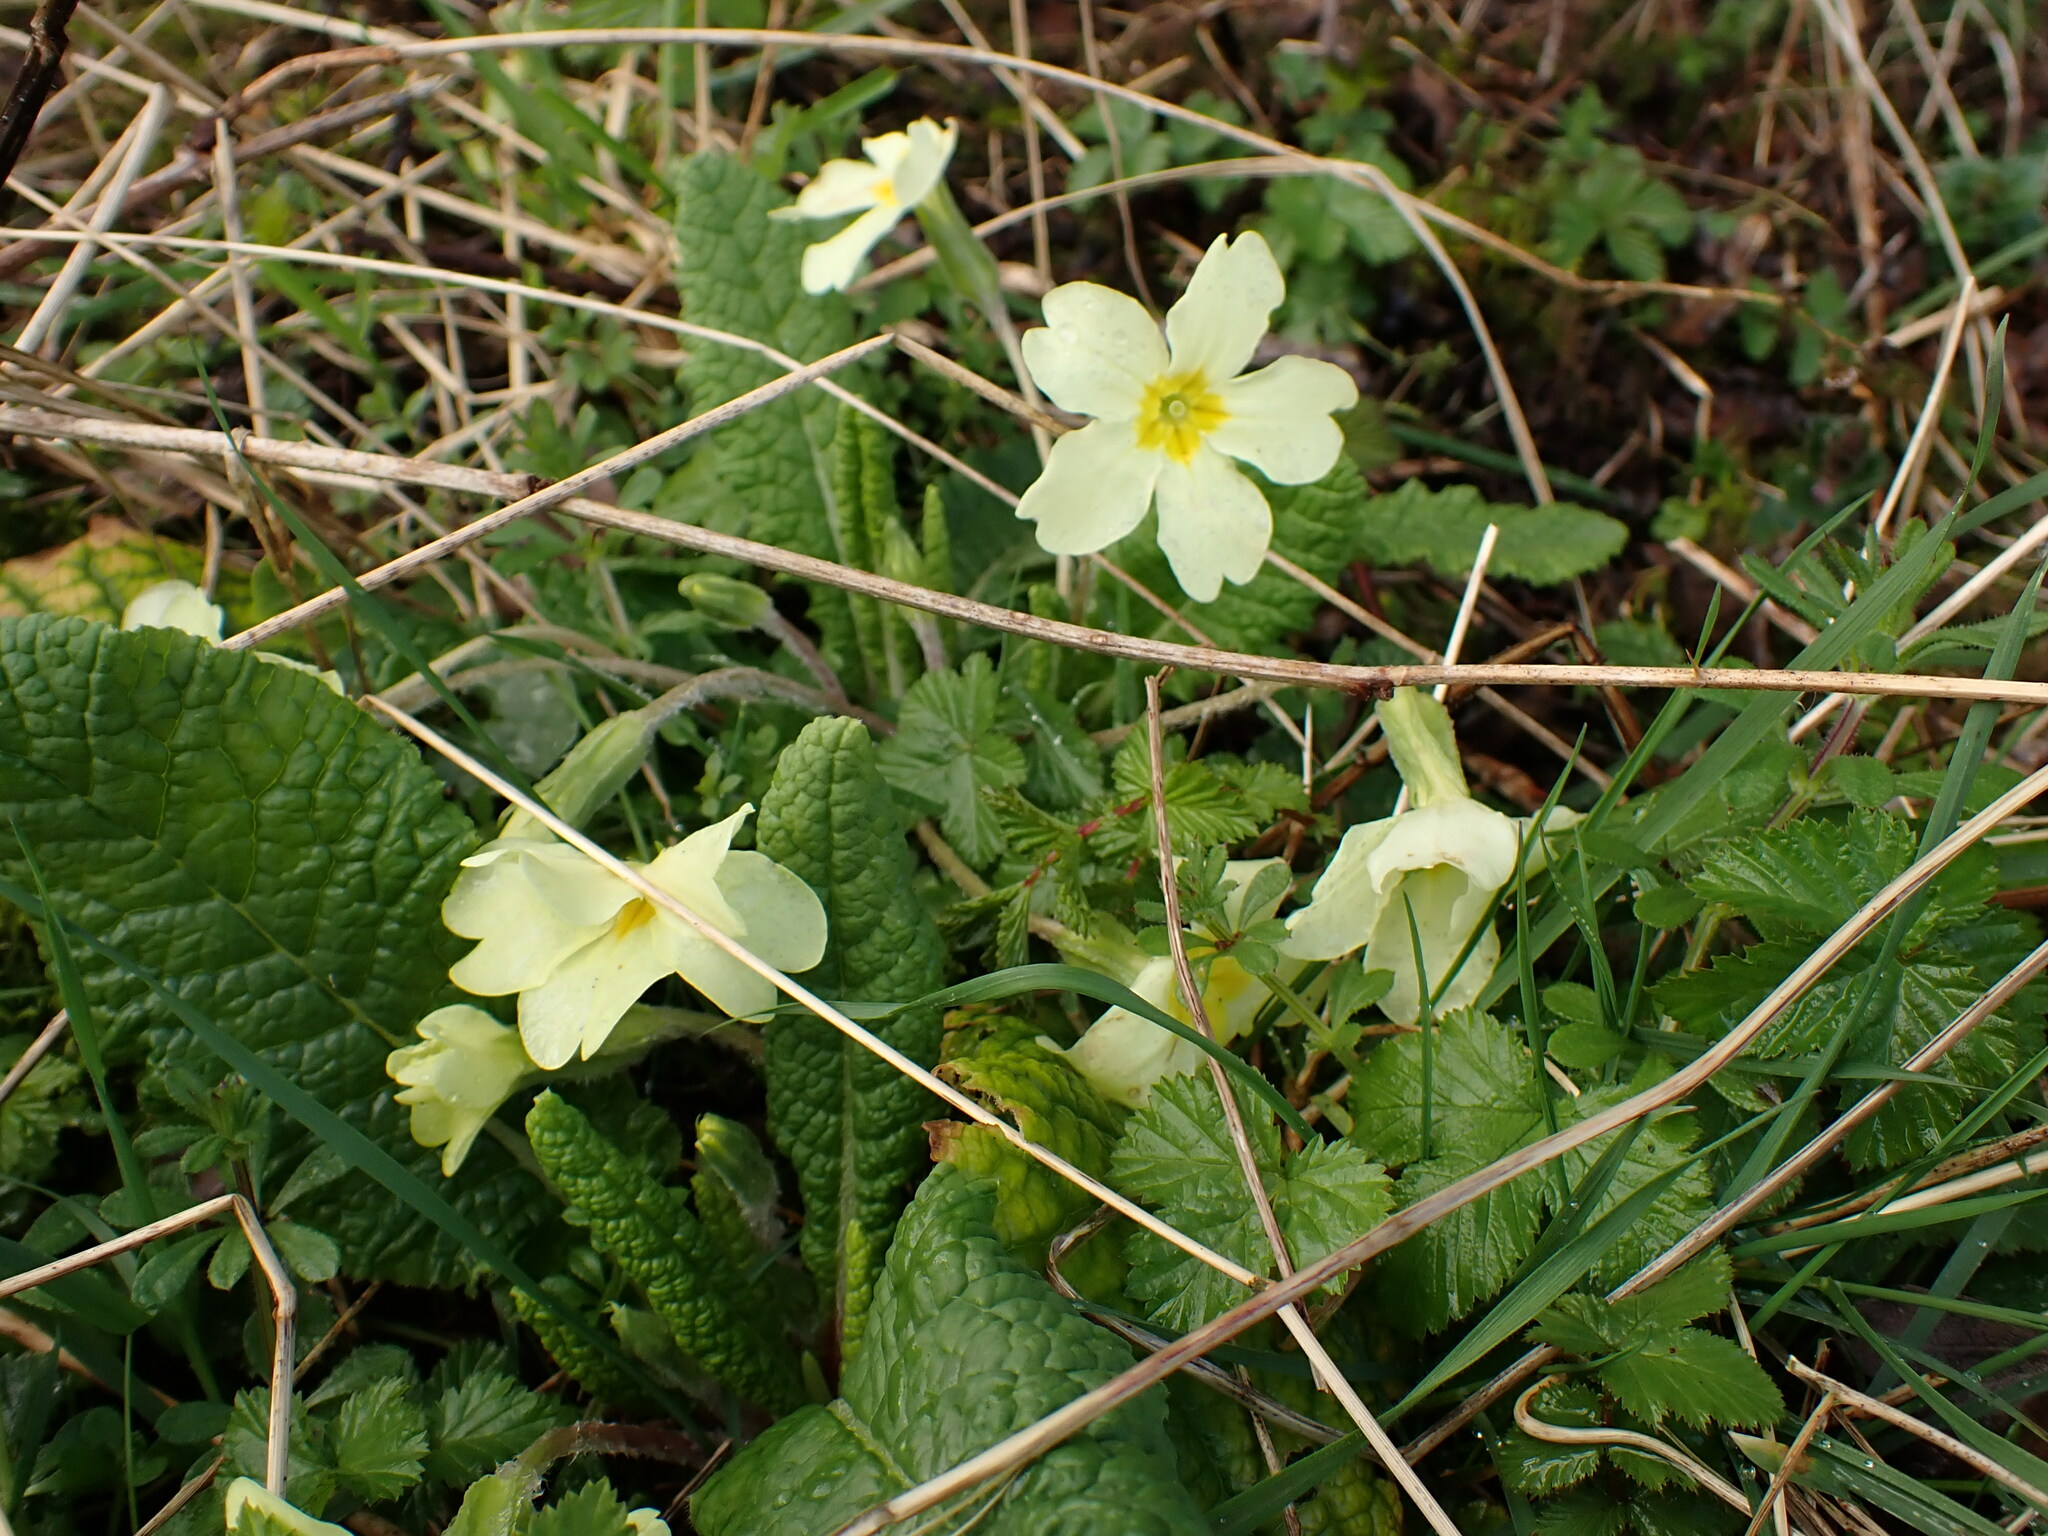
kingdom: Plantae
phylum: Tracheophyta
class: Magnoliopsida
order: Ericales
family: Primulaceae
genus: Primula
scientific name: Primula vulgaris
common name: Primrose
